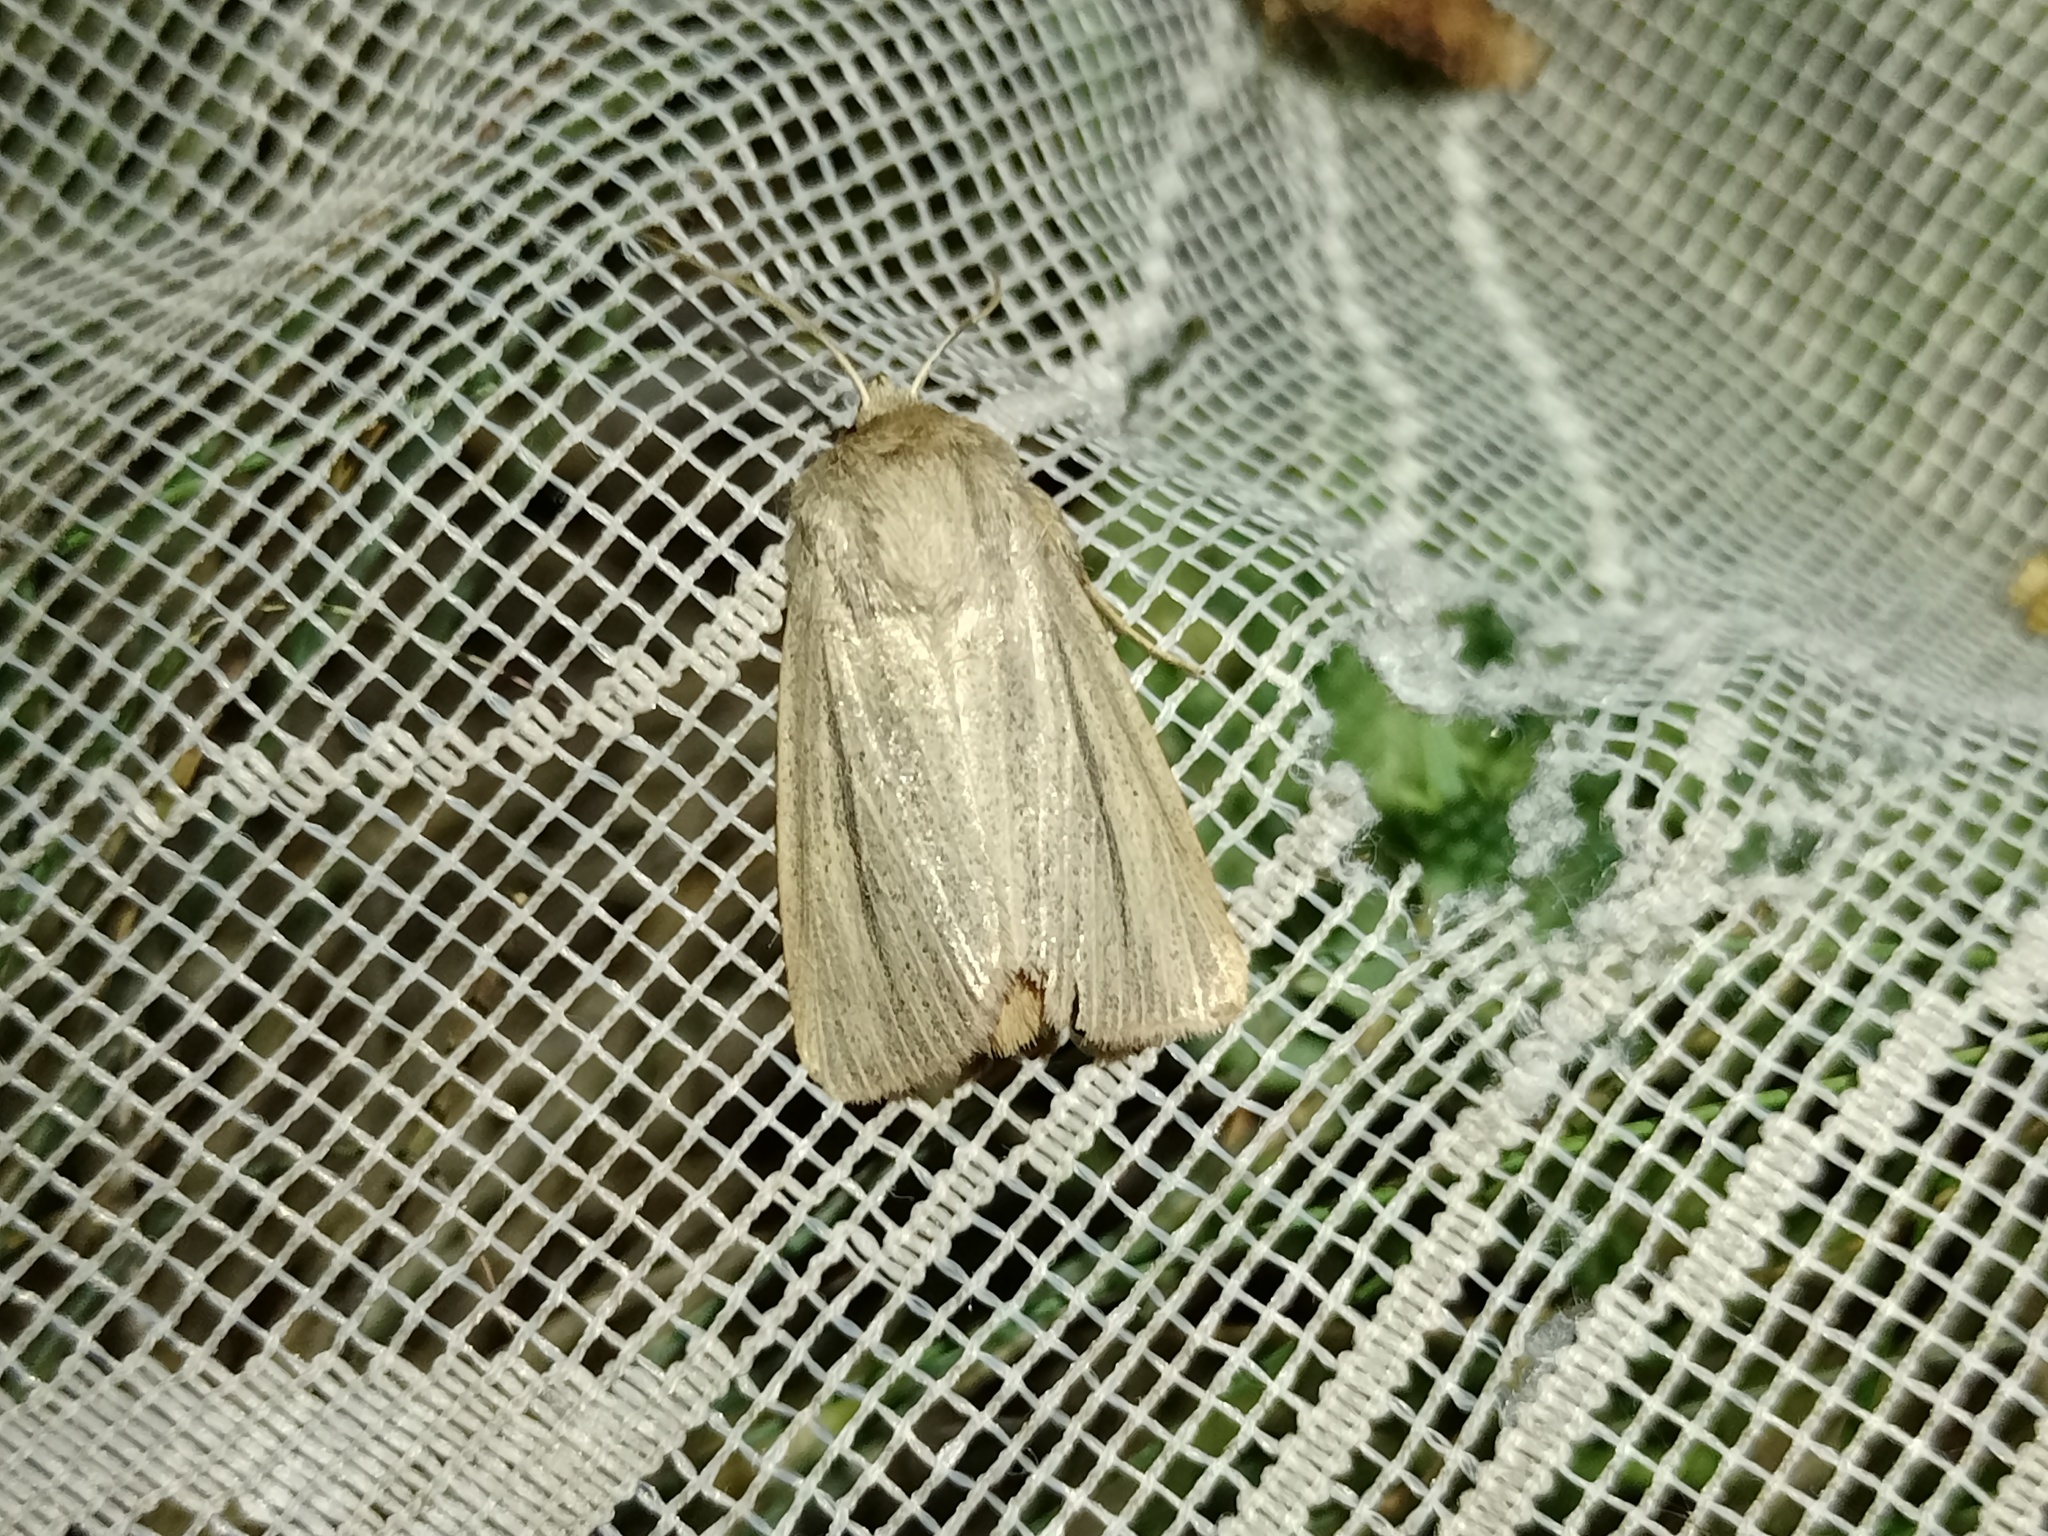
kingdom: Animalia
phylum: Arthropoda
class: Insecta
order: Lepidoptera
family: Noctuidae
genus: Mythimna
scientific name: Mythimna pudorina
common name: Striped wainscot
